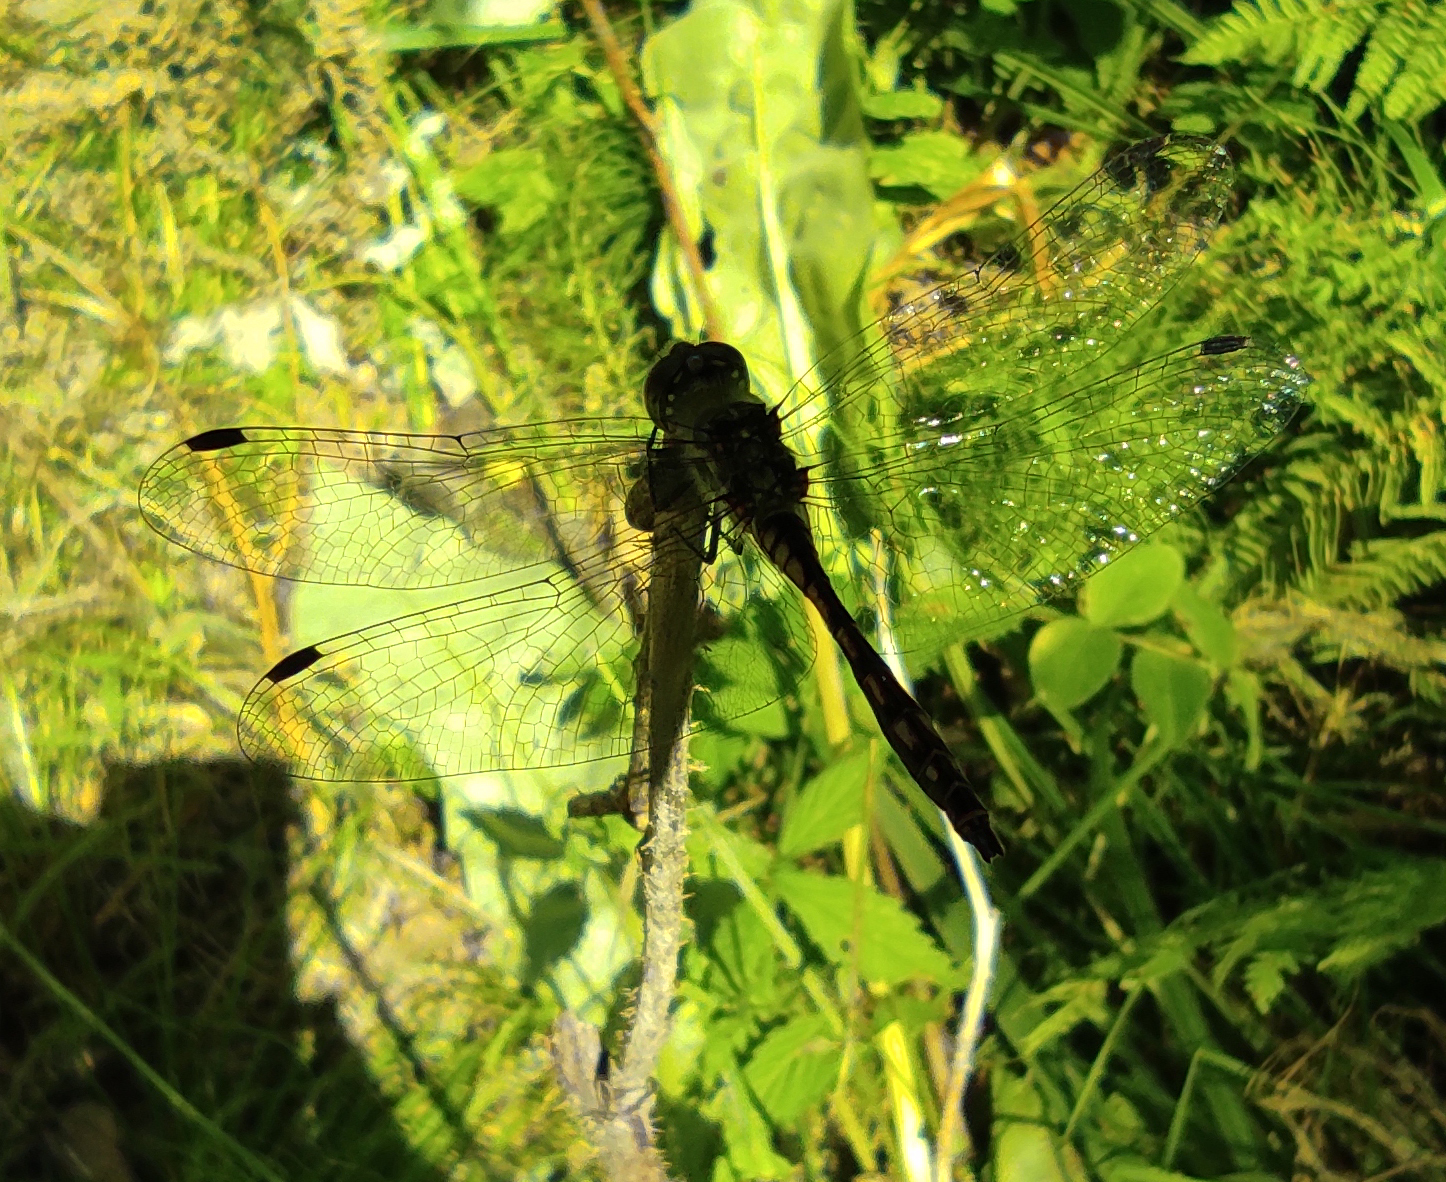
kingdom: Animalia
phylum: Arthropoda
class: Insecta
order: Odonata
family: Libellulidae
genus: Sympetrum
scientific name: Sympetrum danae
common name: Black darter
